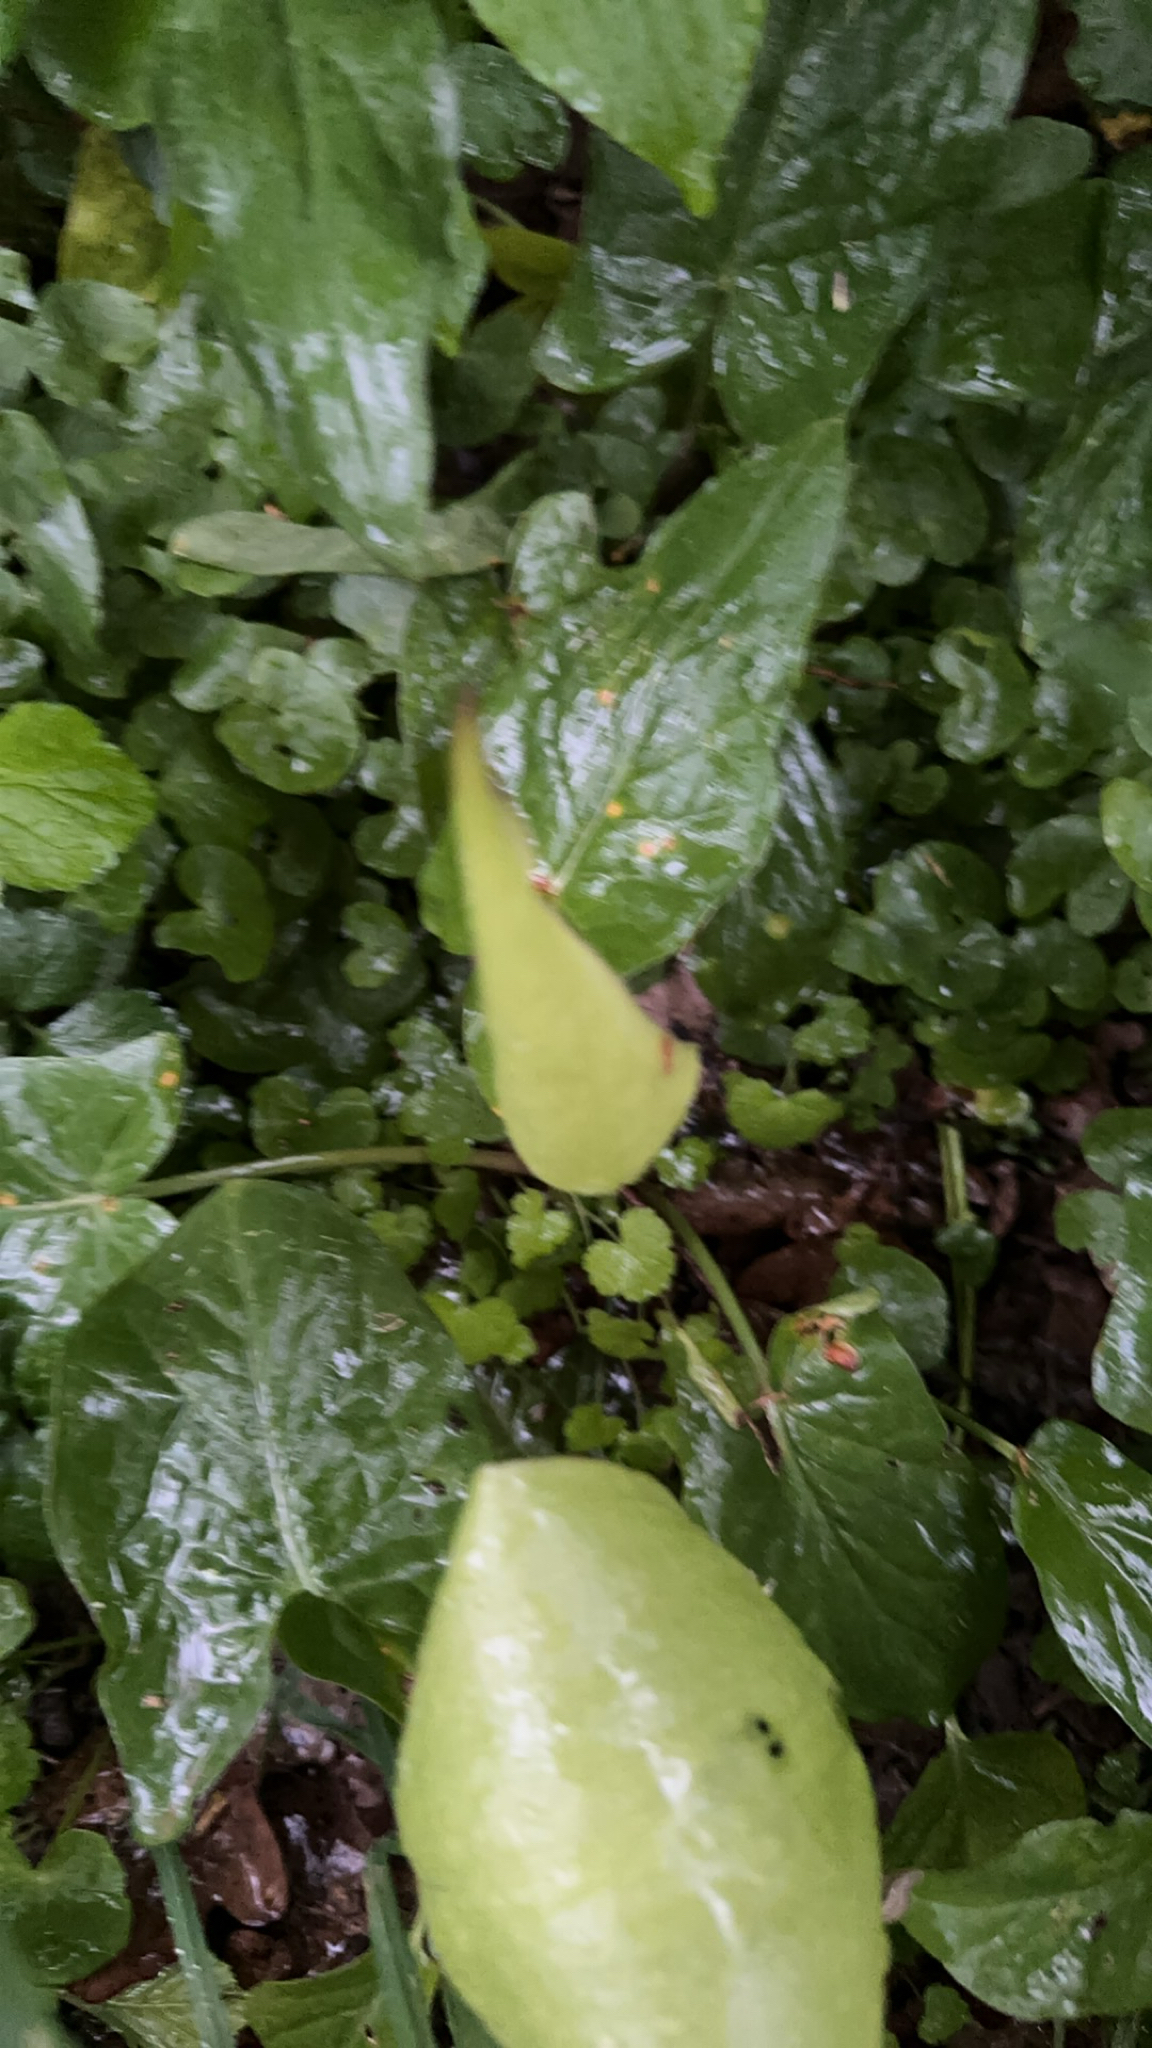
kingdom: Plantae
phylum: Tracheophyta
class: Liliopsida
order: Alismatales
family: Araceae
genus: Arum
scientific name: Arum maculatum
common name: Lords-and-ladies
